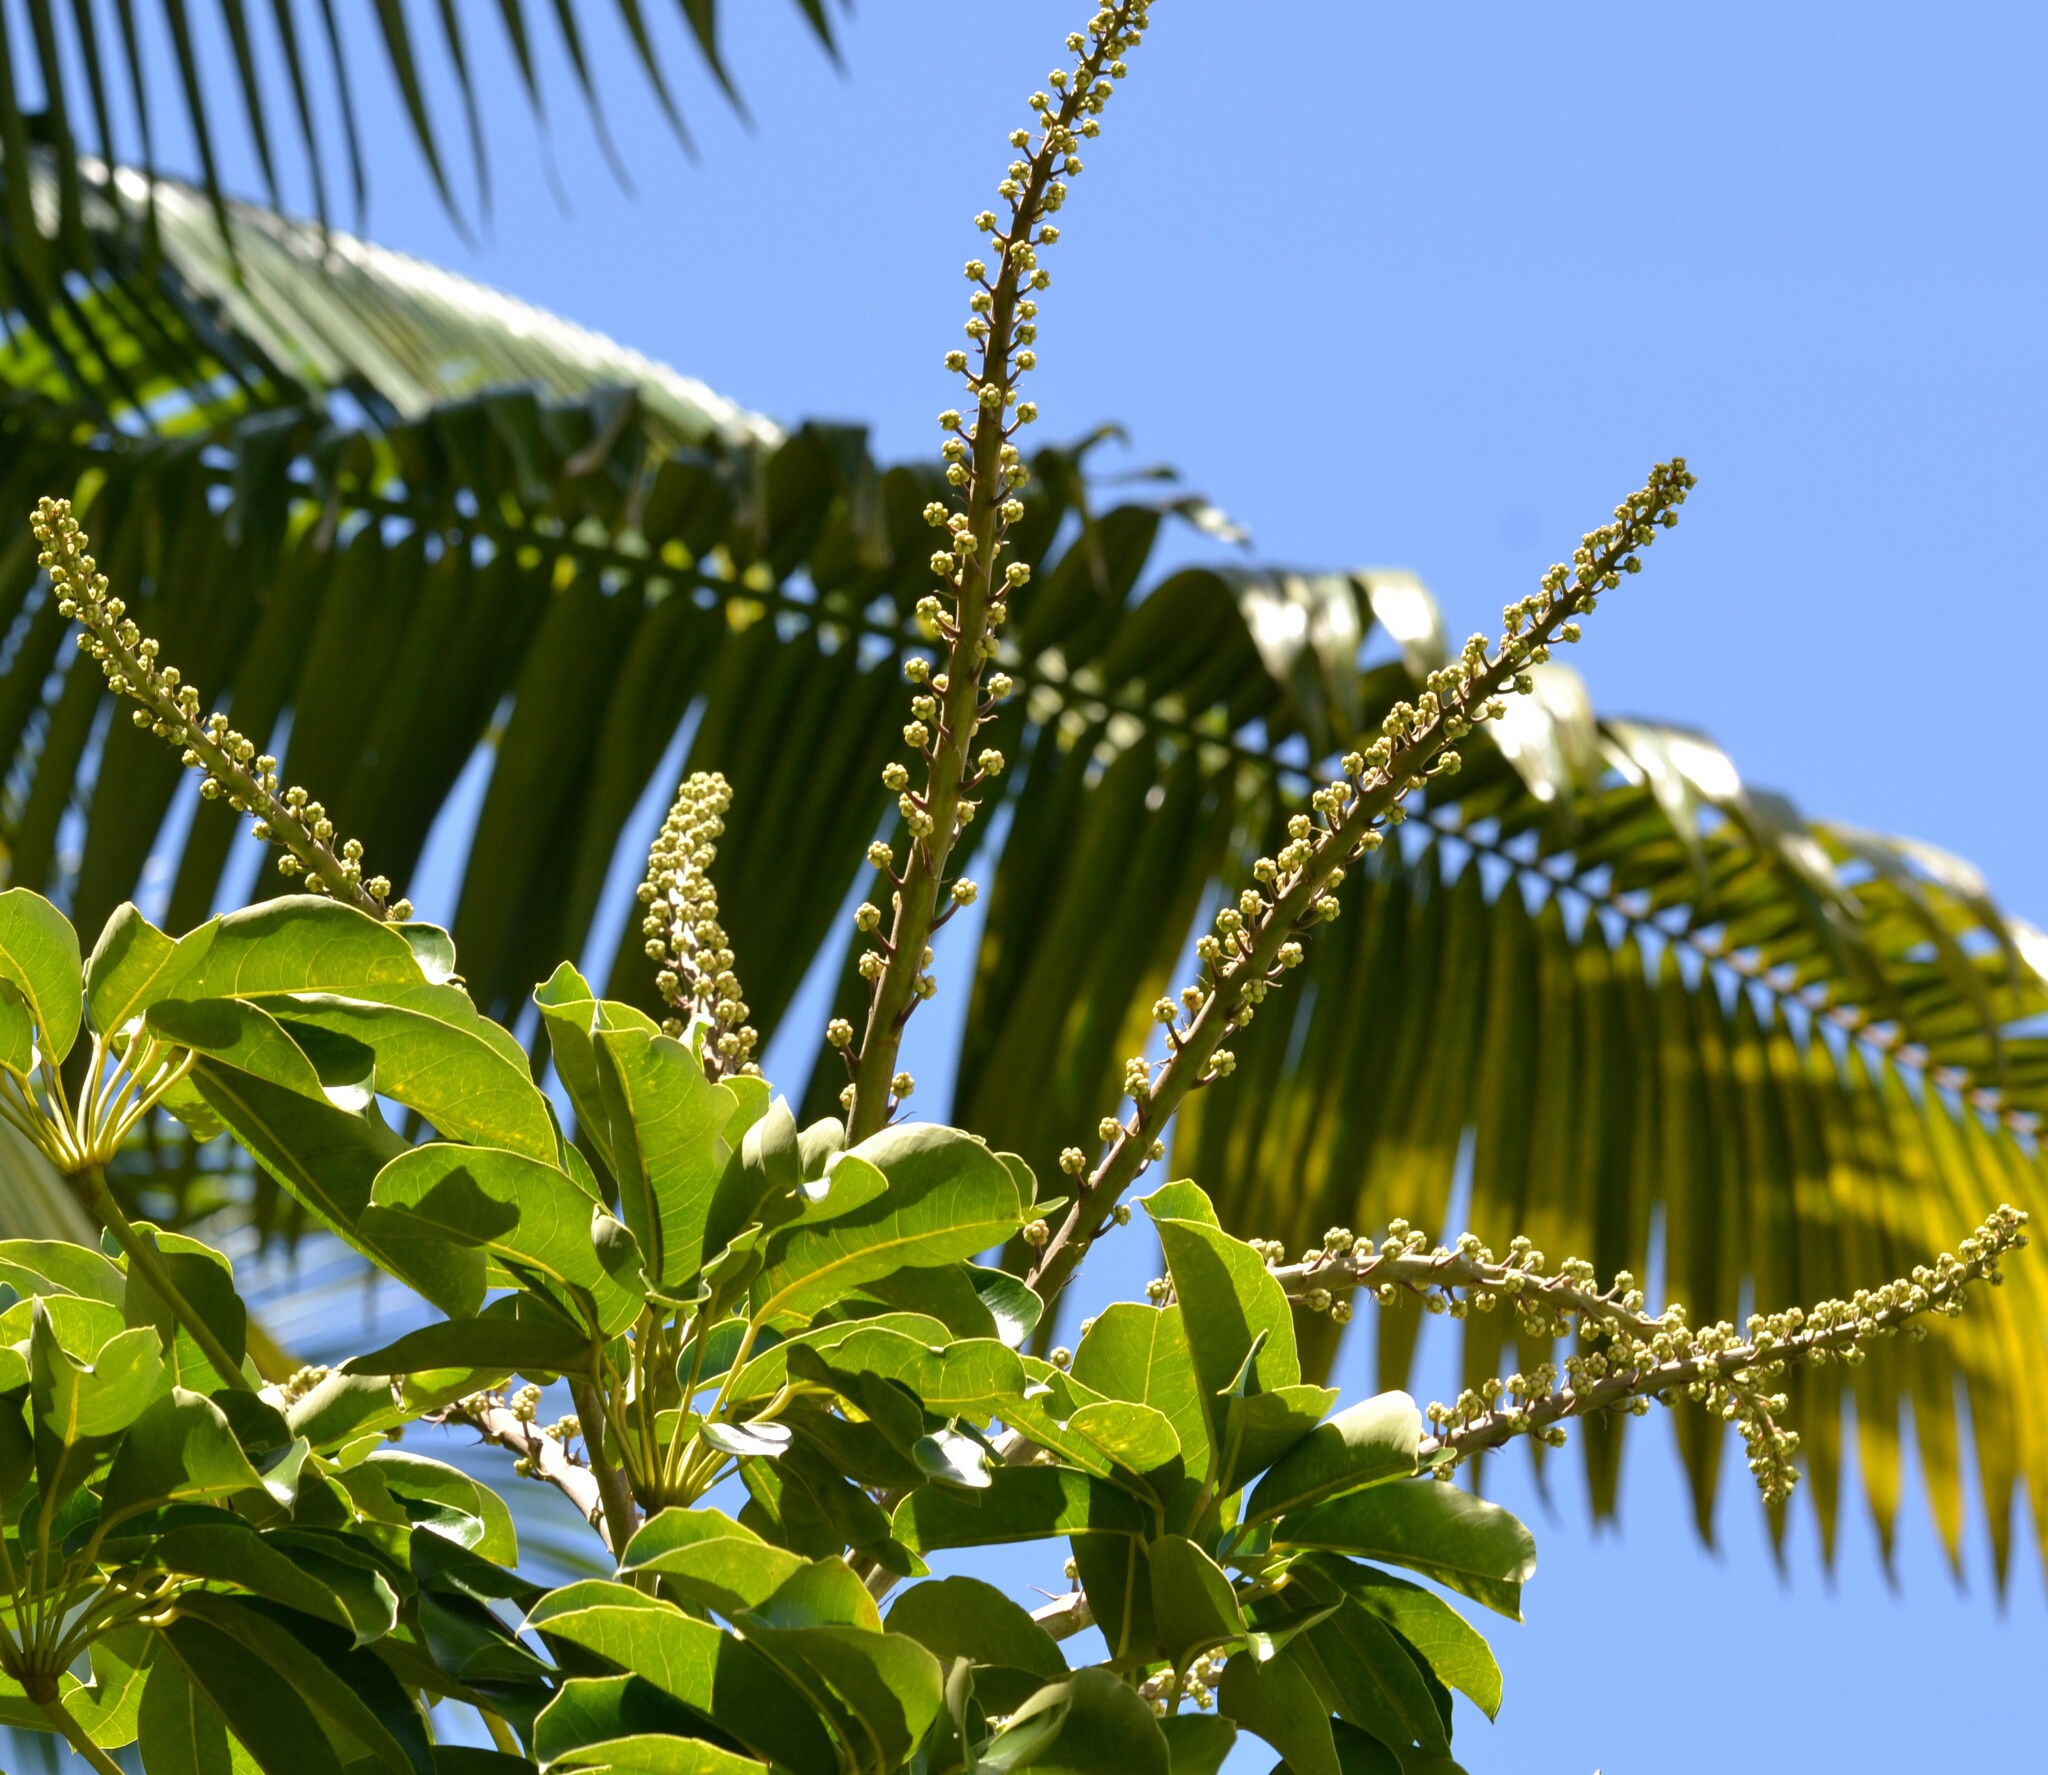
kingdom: Plantae
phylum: Tracheophyta
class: Magnoliopsida
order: Apiales
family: Araliaceae
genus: Heptapleurum
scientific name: Heptapleurum actinophyllum
